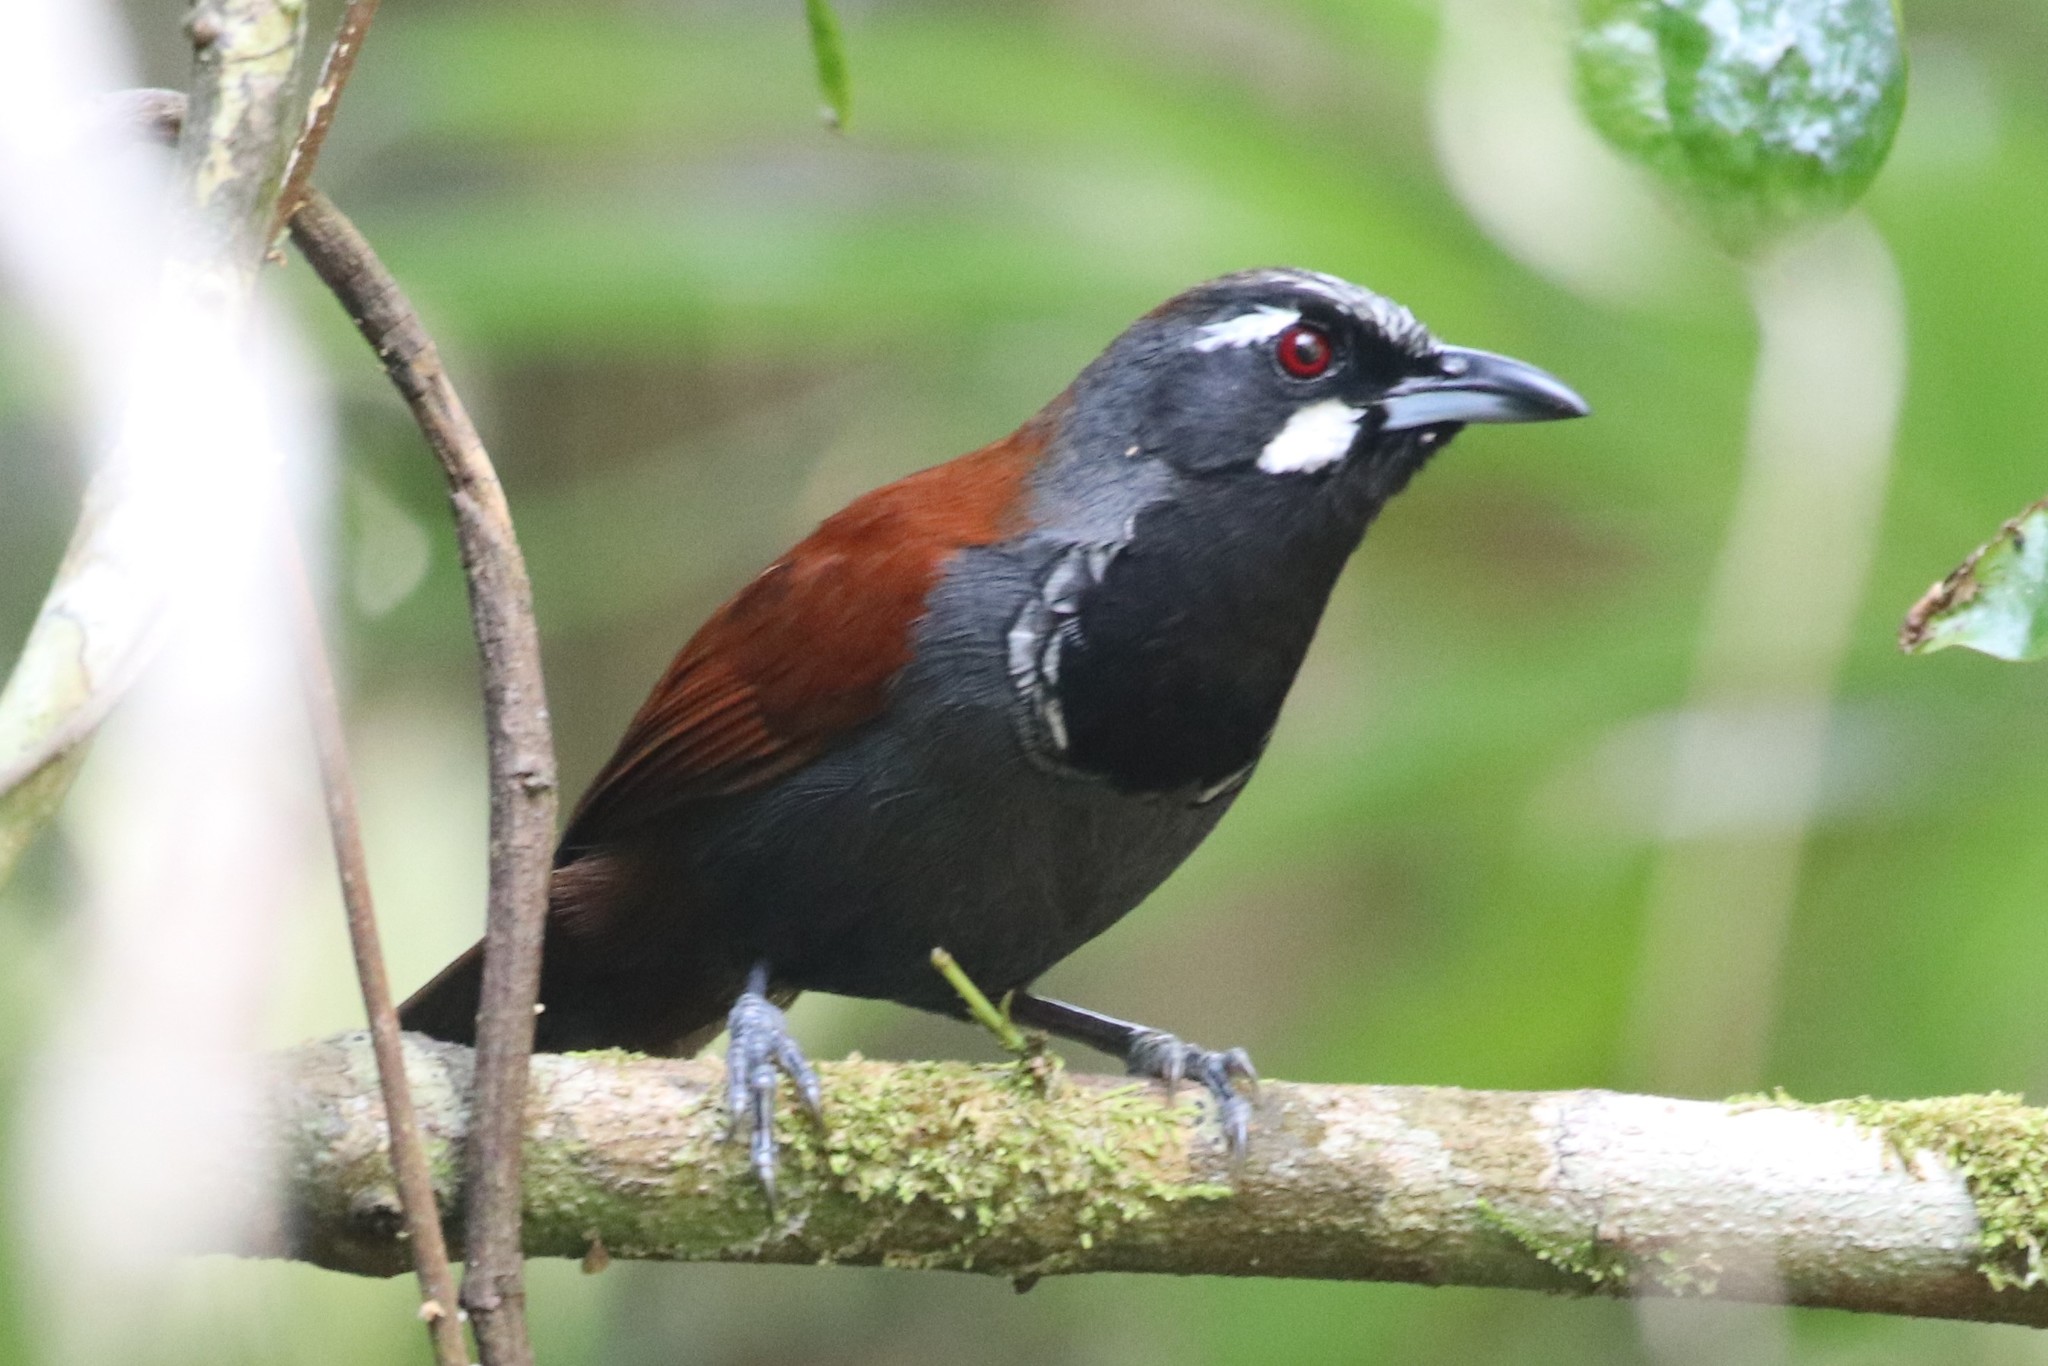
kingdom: Animalia
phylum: Chordata
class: Aves
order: Passeriformes
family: Timaliidae
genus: Stachyris
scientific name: Stachyris nigricollis
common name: Black-throated babbler
